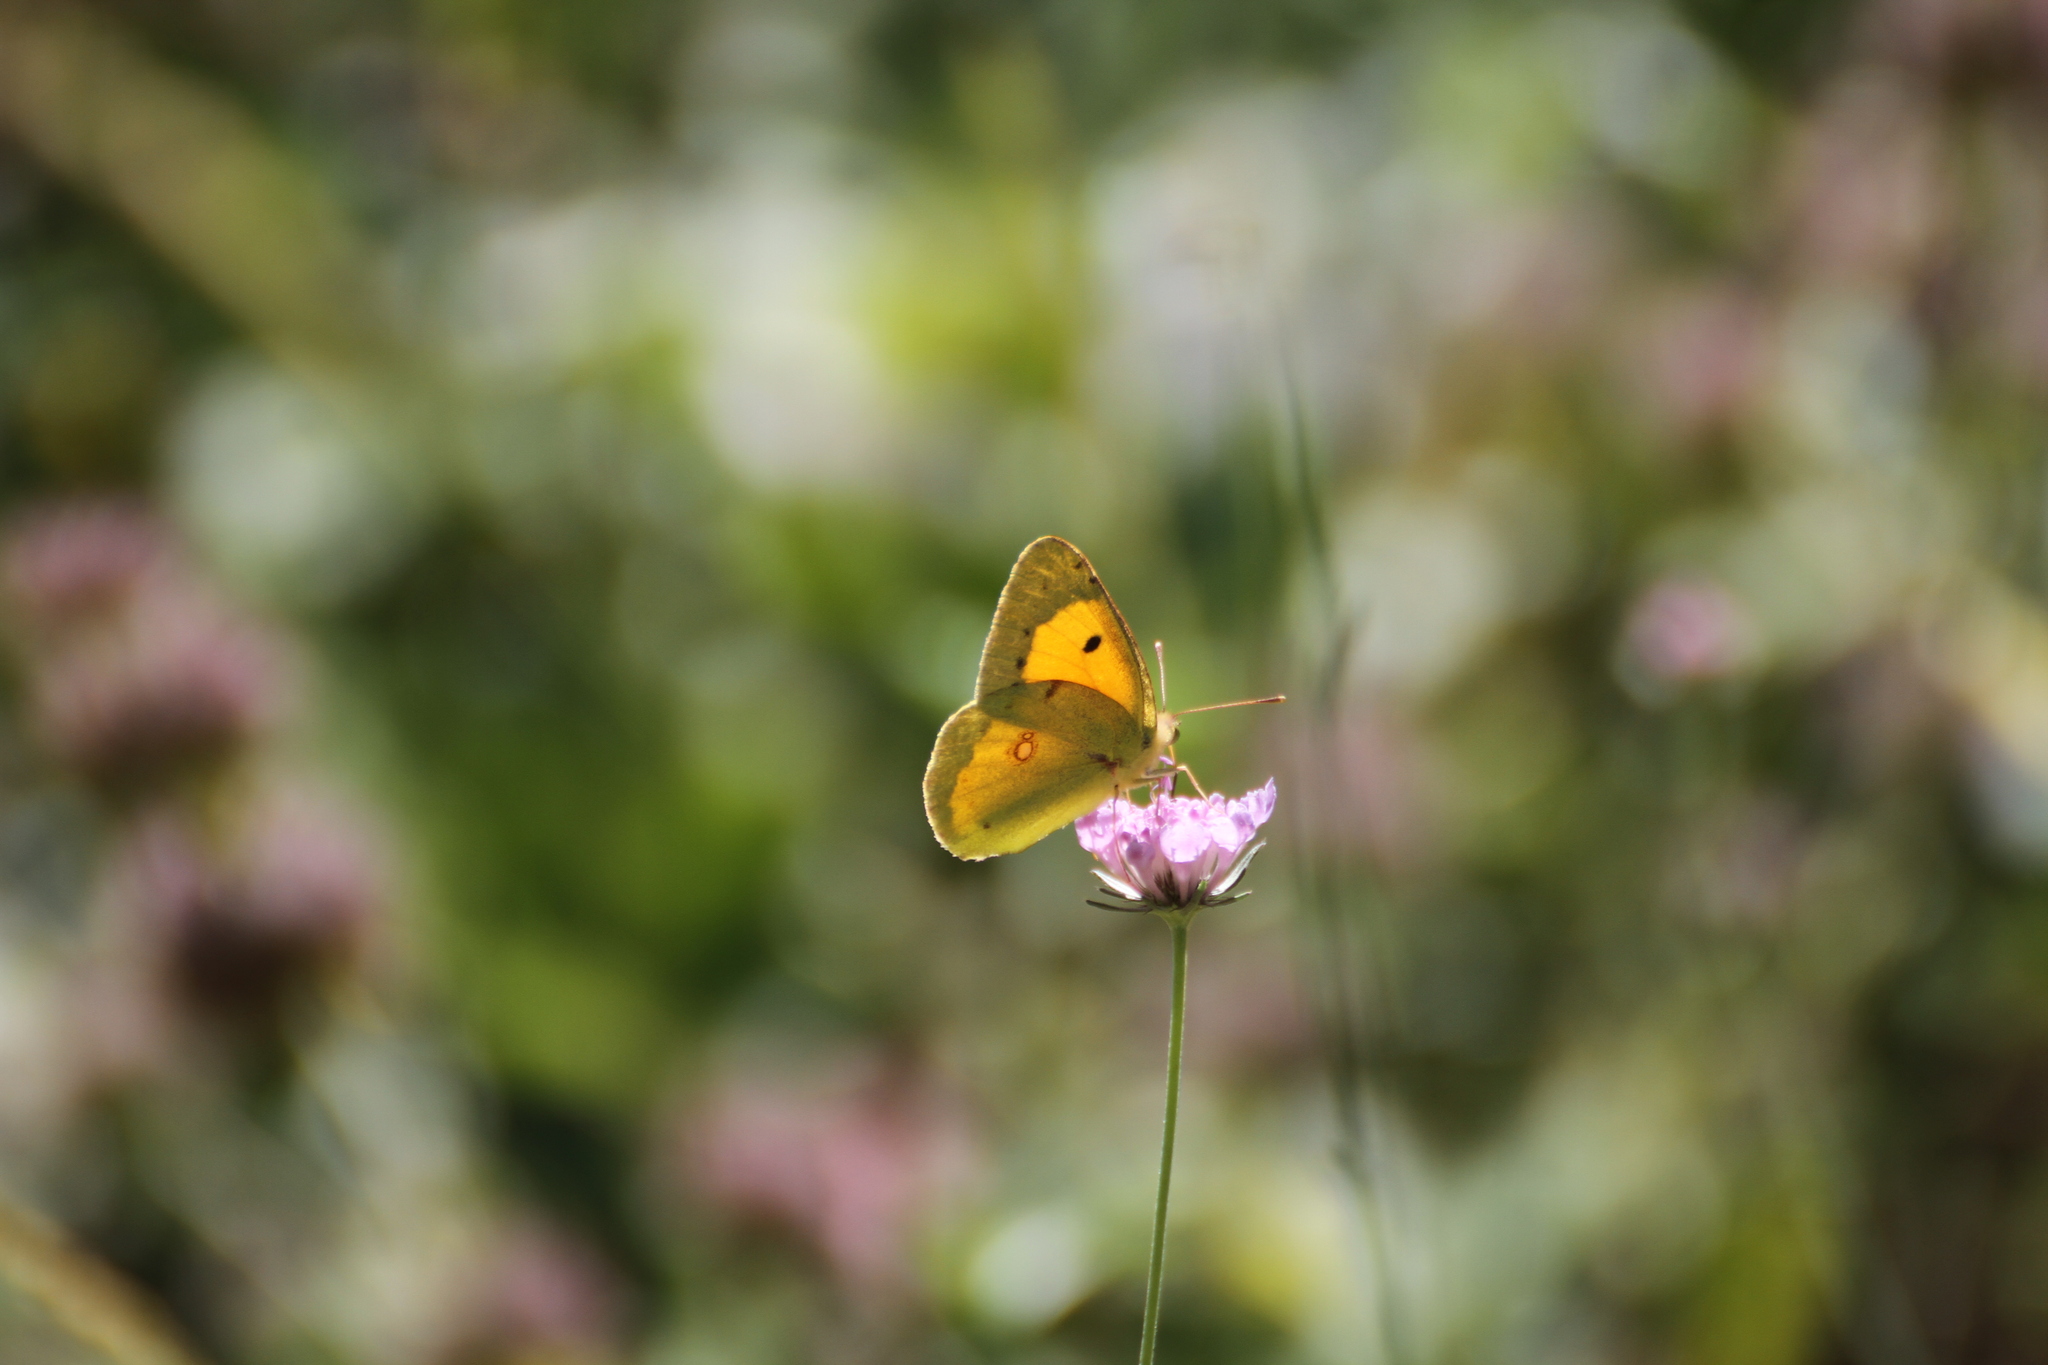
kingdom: Animalia
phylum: Arthropoda
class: Insecta
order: Lepidoptera
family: Pieridae
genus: Colias
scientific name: Colias croceus
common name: Clouded yellow
